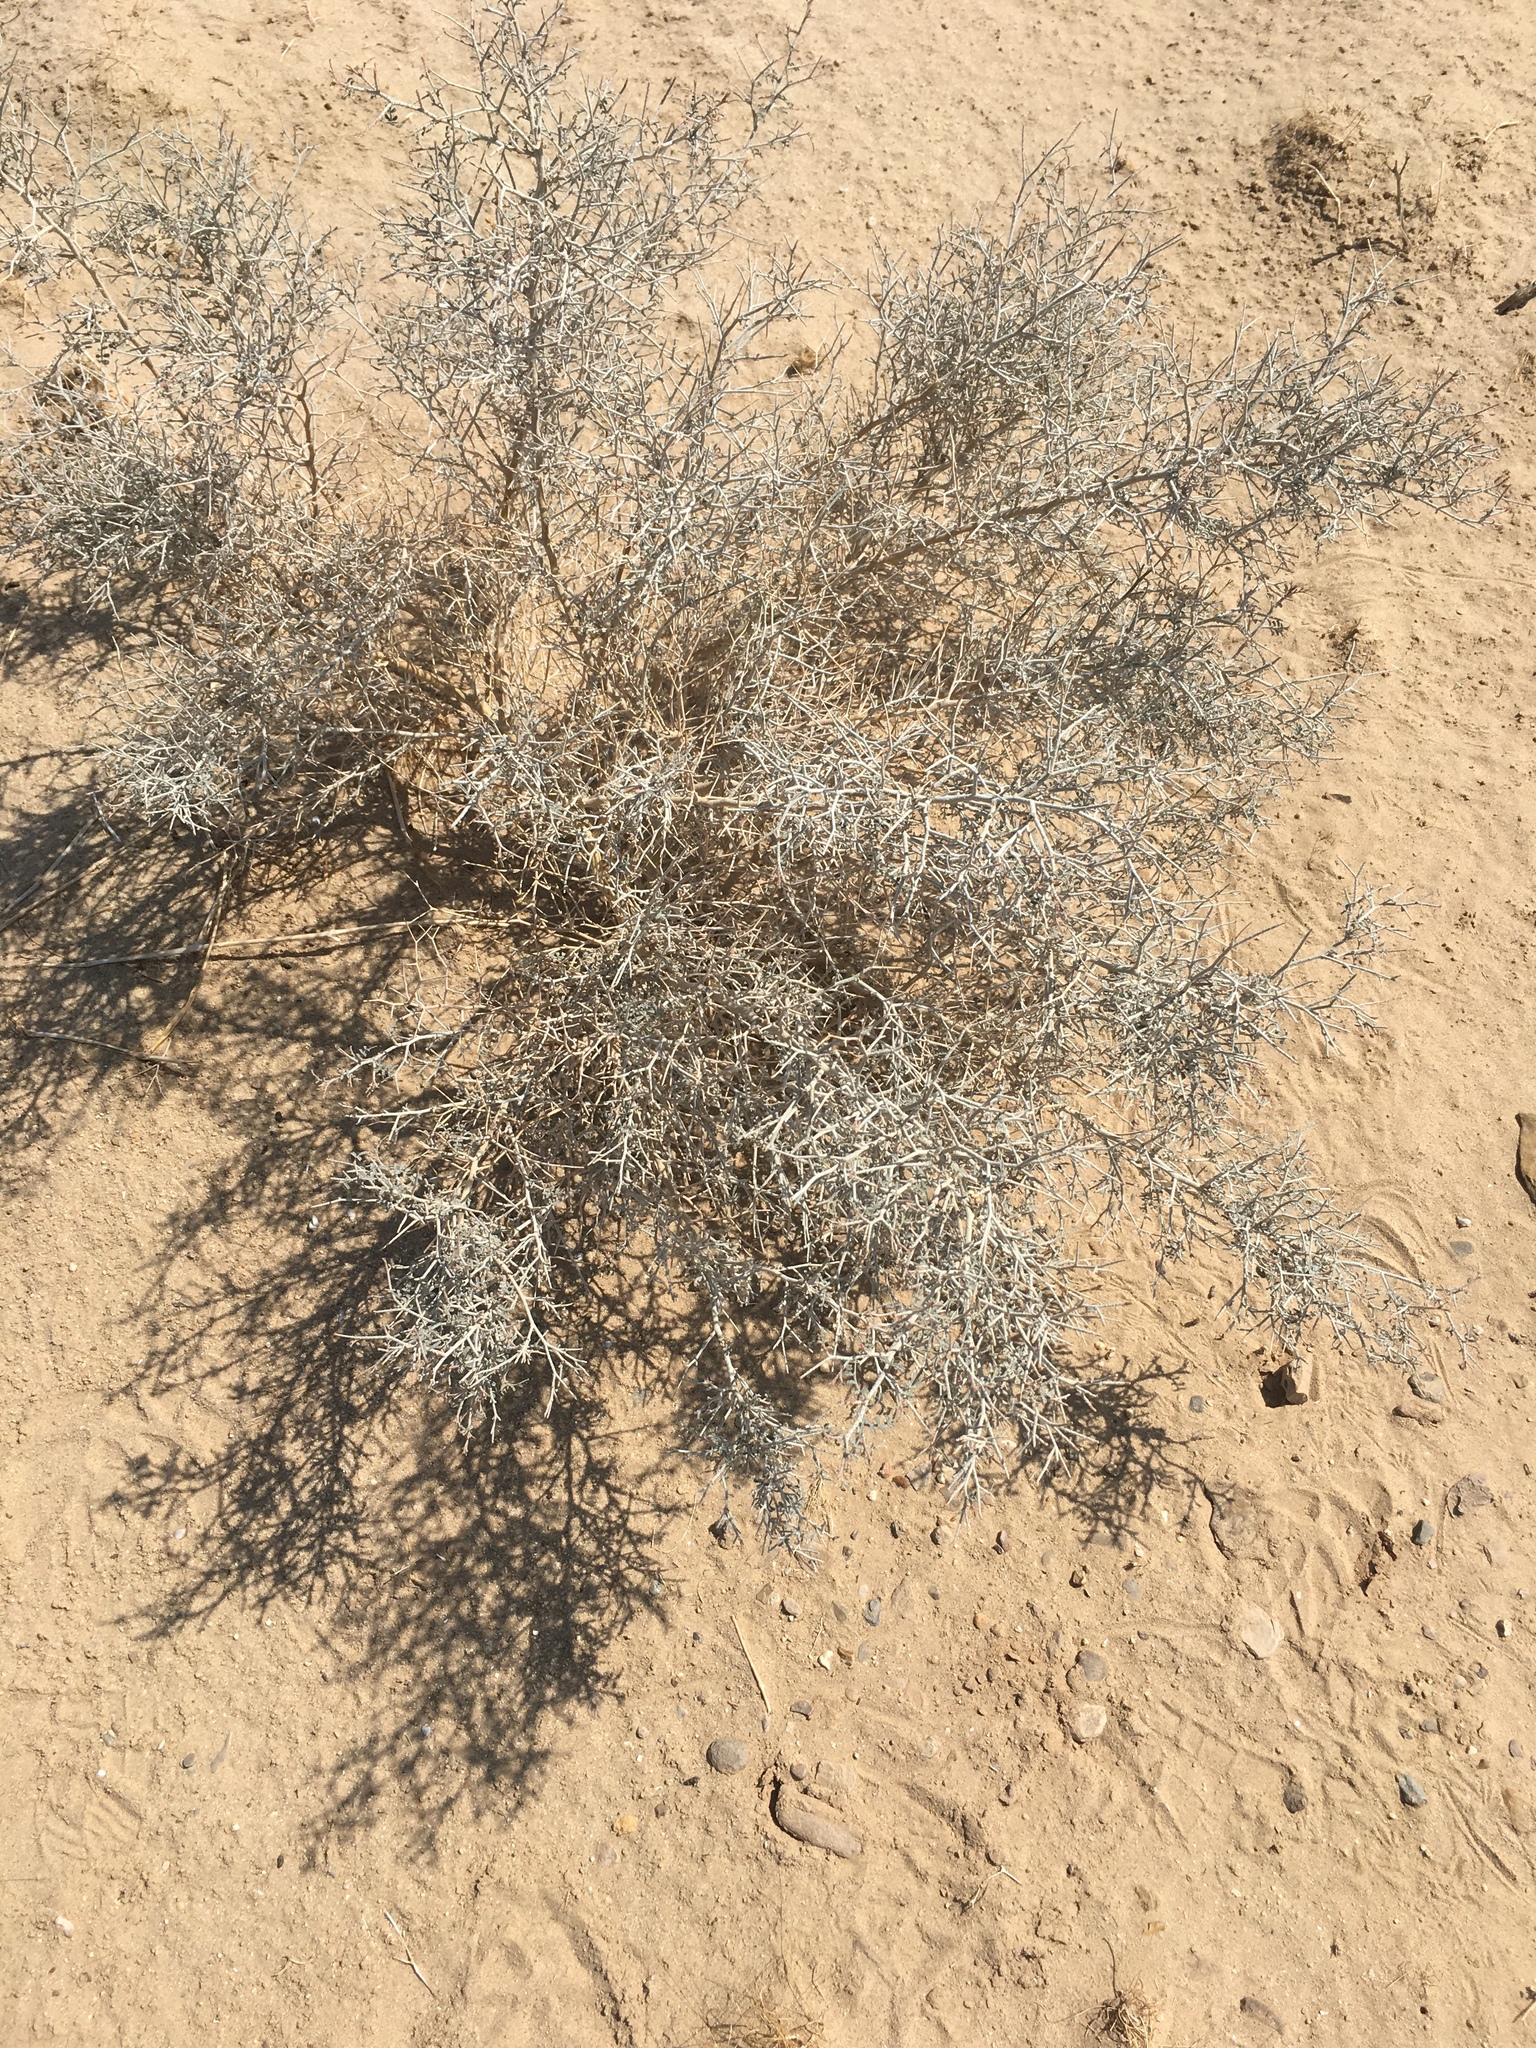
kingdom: Plantae
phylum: Tracheophyta
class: Magnoliopsida
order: Fabales
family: Fabaceae
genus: Psorothamnus
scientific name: Psorothamnus emoryi
